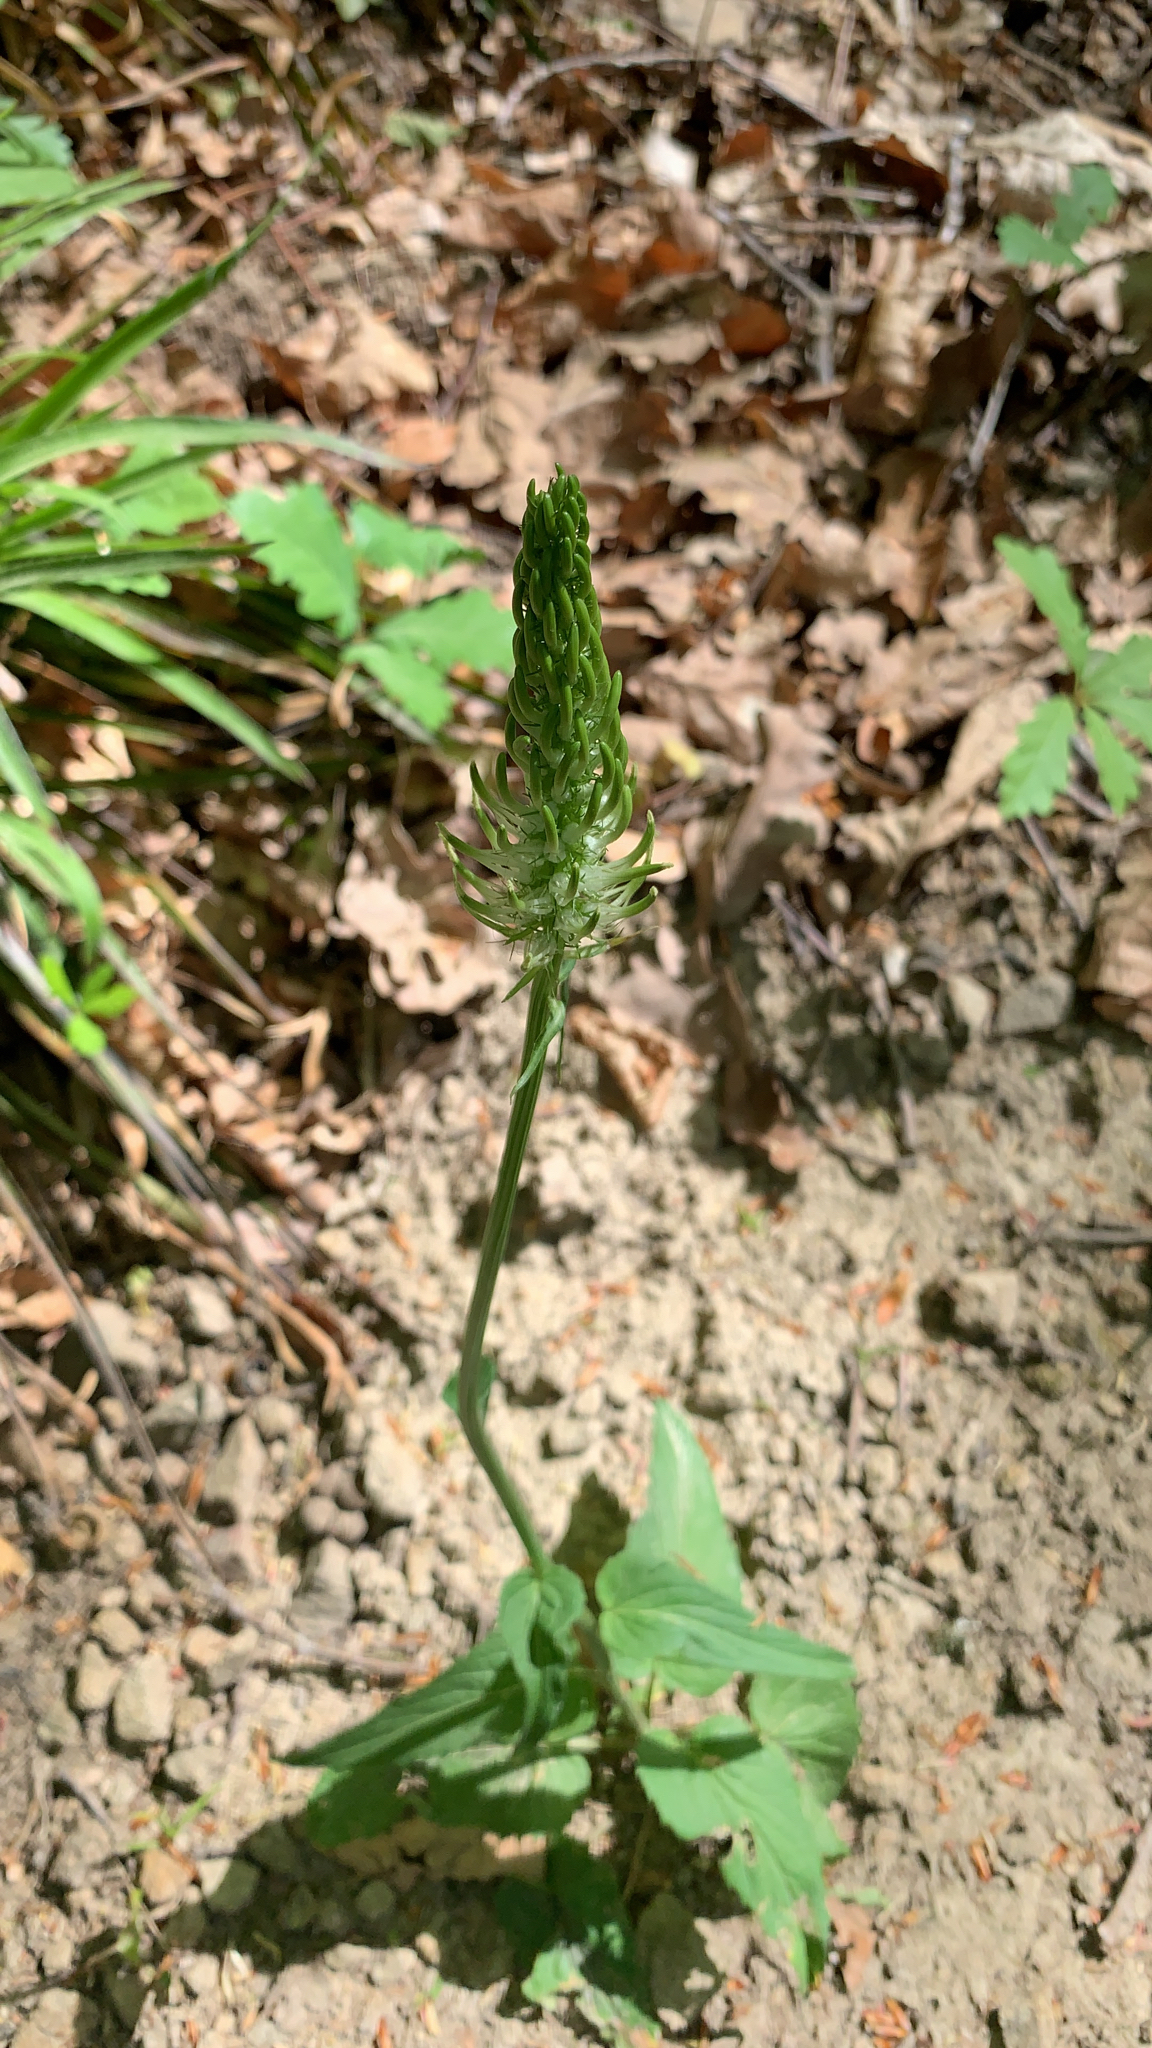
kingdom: Plantae
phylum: Tracheophyta
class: Magnoliopsida
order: Asterales
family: Campanulaceae
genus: Phyteuma
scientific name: Phyteuma spicatum
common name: Spiked rampion
